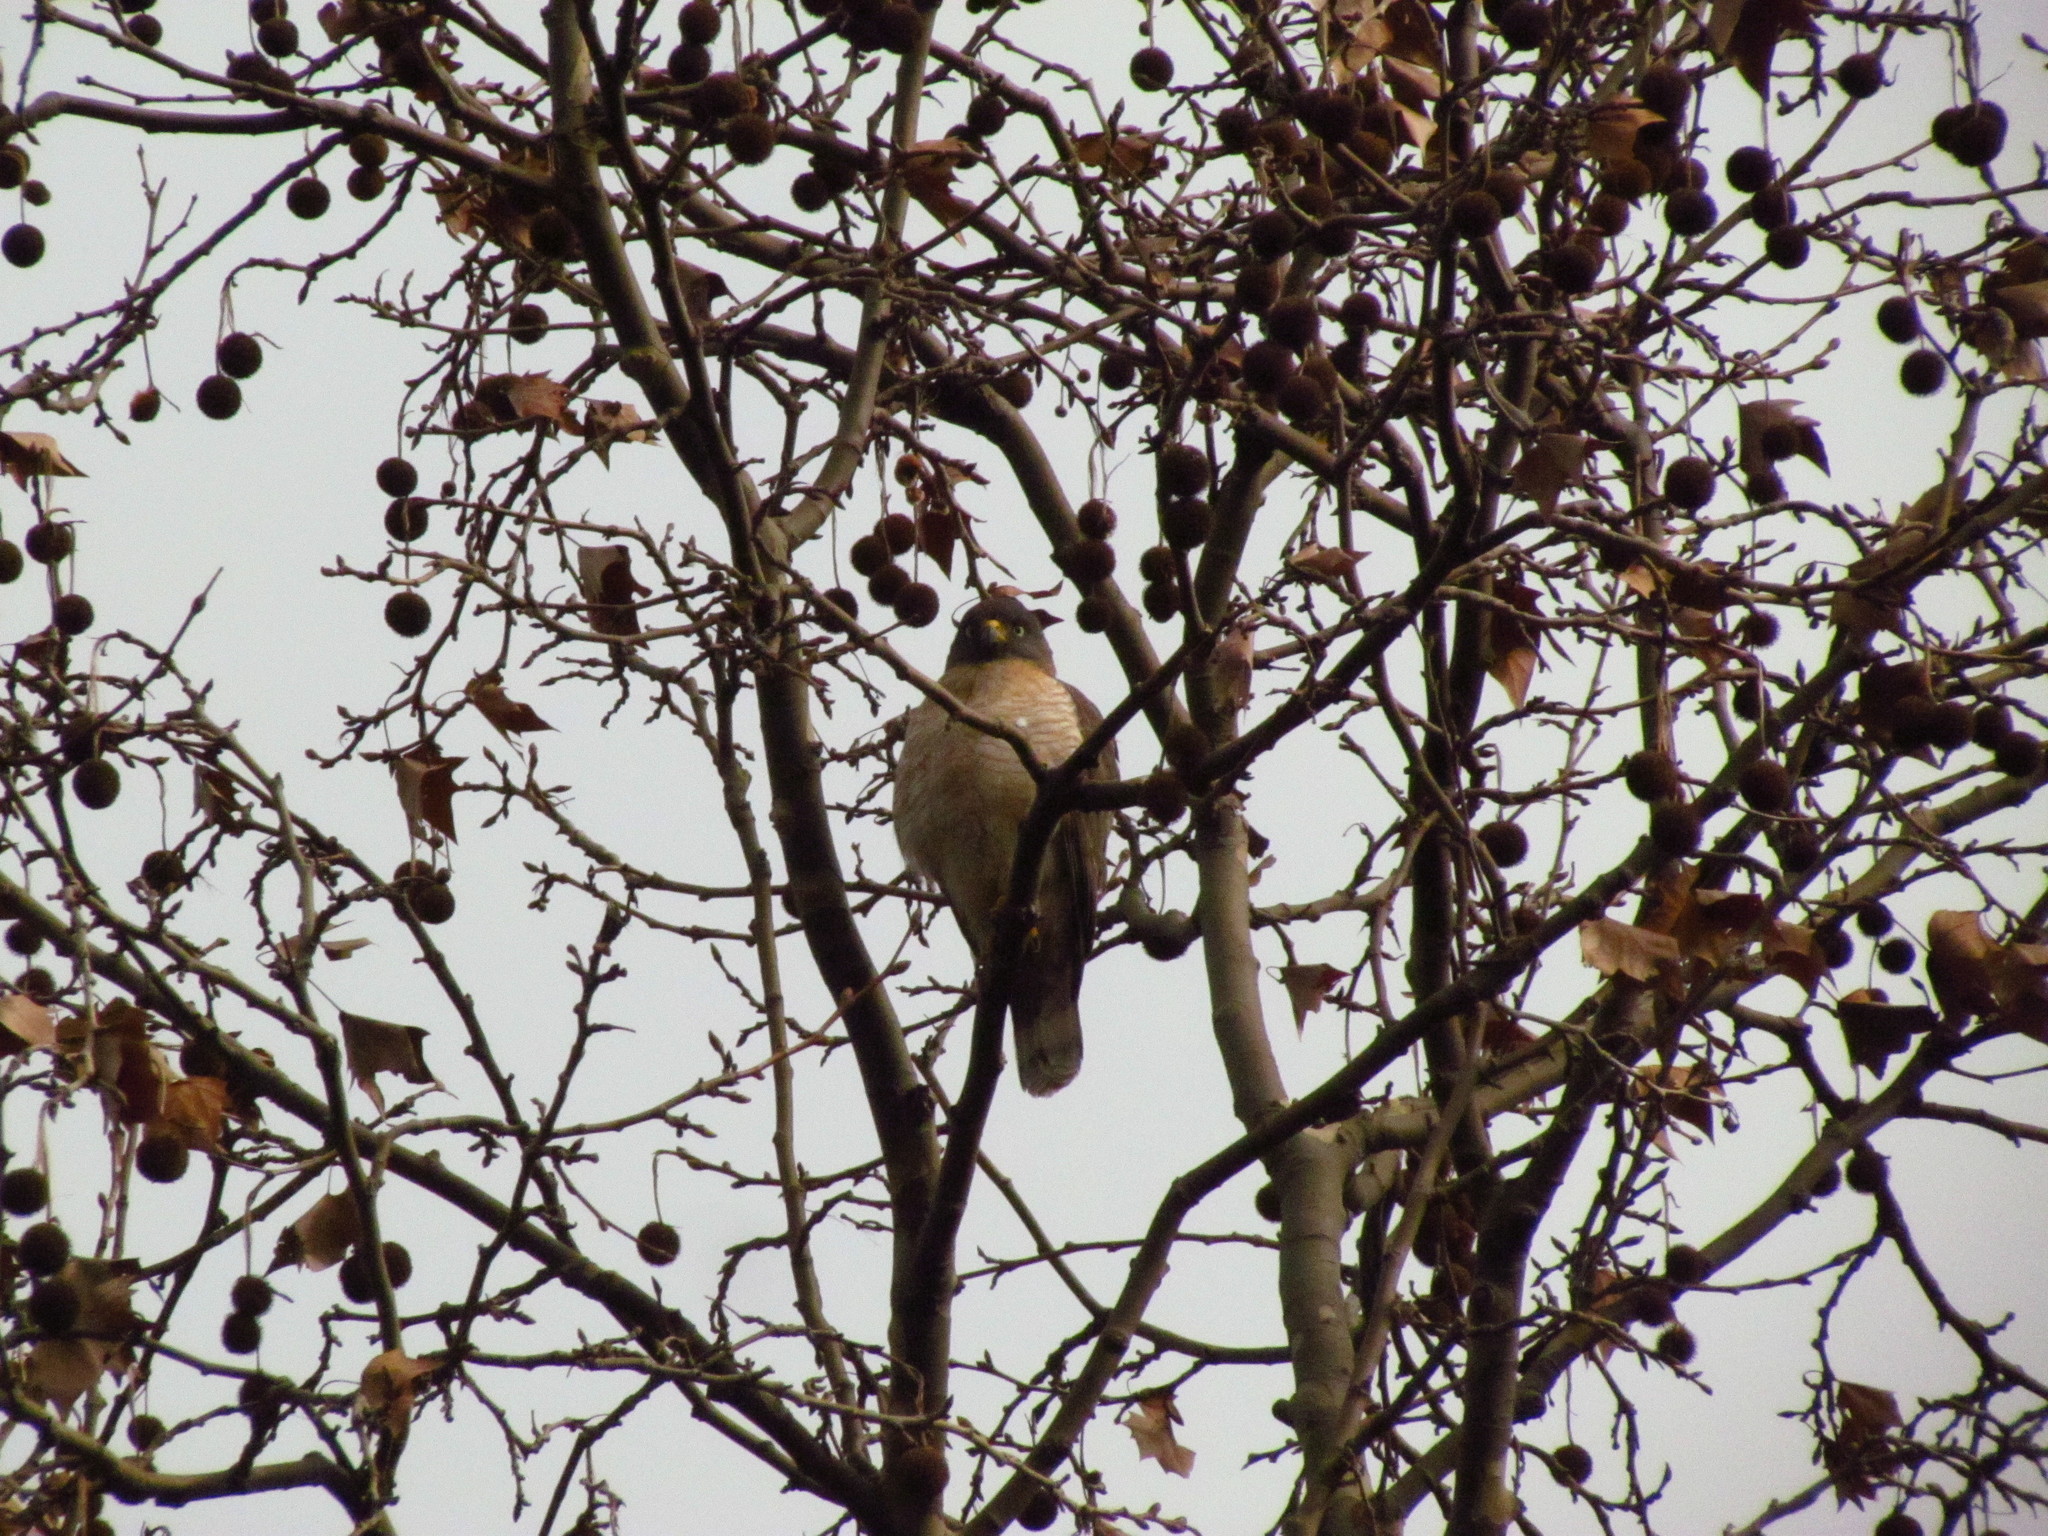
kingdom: Animalia
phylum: Chordata
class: Aves
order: Accipitriformes
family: Accipitridae
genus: Rupornis
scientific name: Rupornis magnirostris
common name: Roadside hawk
